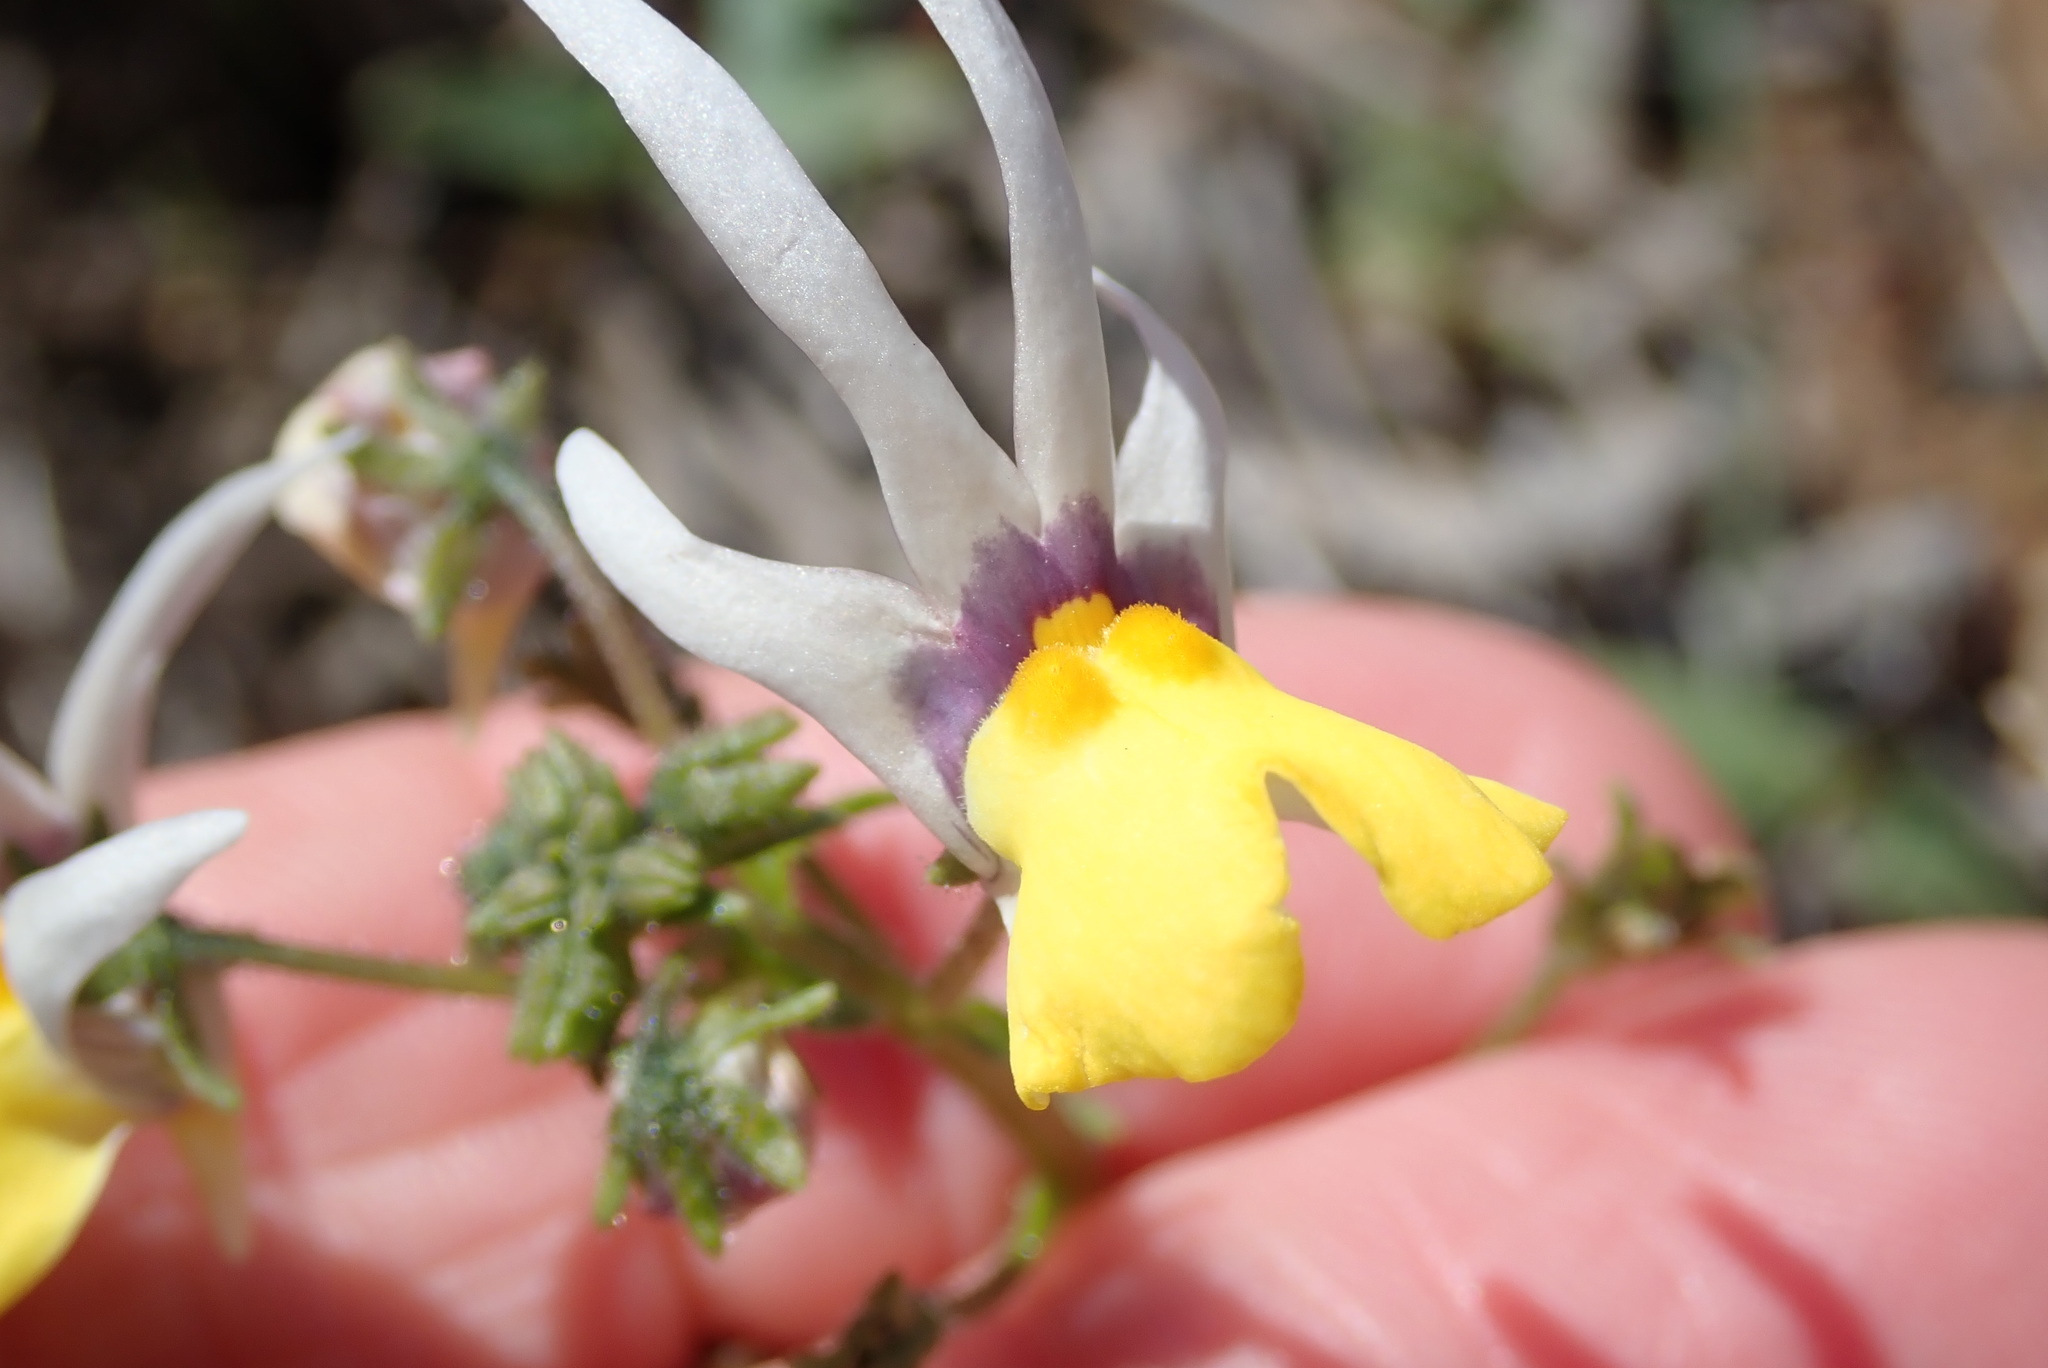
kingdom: Plantae
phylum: Tracheophyta
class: Magnoliopsida
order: Lamiales
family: Scrophulariaceae
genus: Nemesia
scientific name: Nemesia cheiranthus
